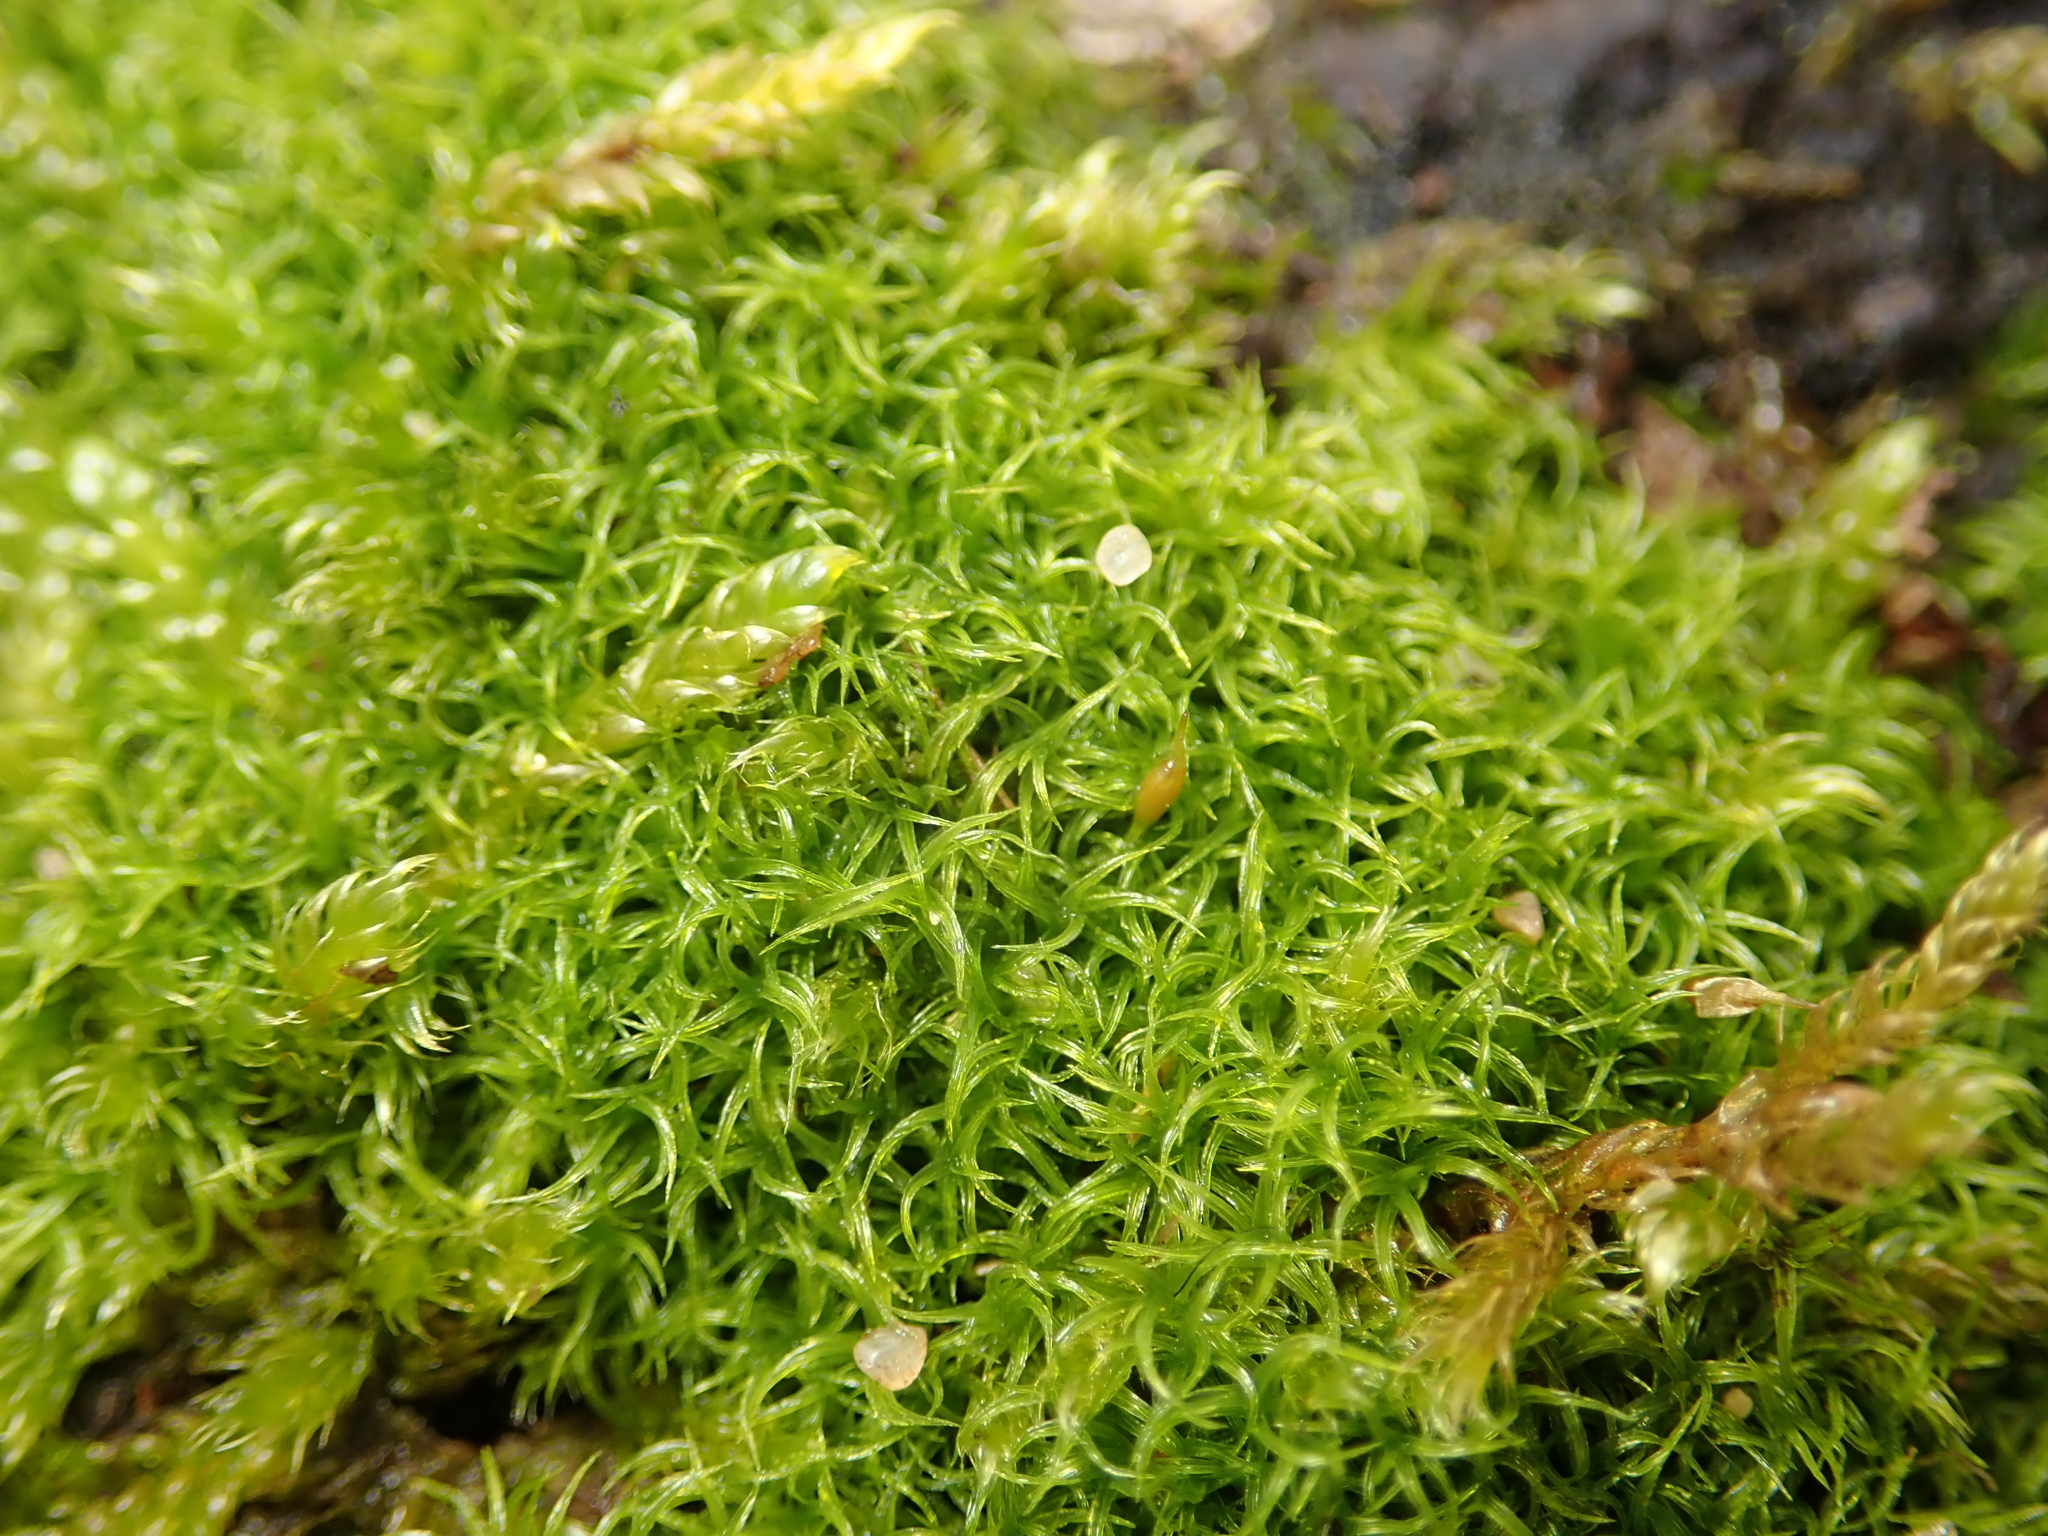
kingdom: Plantae
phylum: Bryophyta
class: Bryopsida
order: Dicranales
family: Rhabdoweisiaceae
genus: Dicranoweisia
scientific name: Dicranoweisia cirrata
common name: Common pincushion
